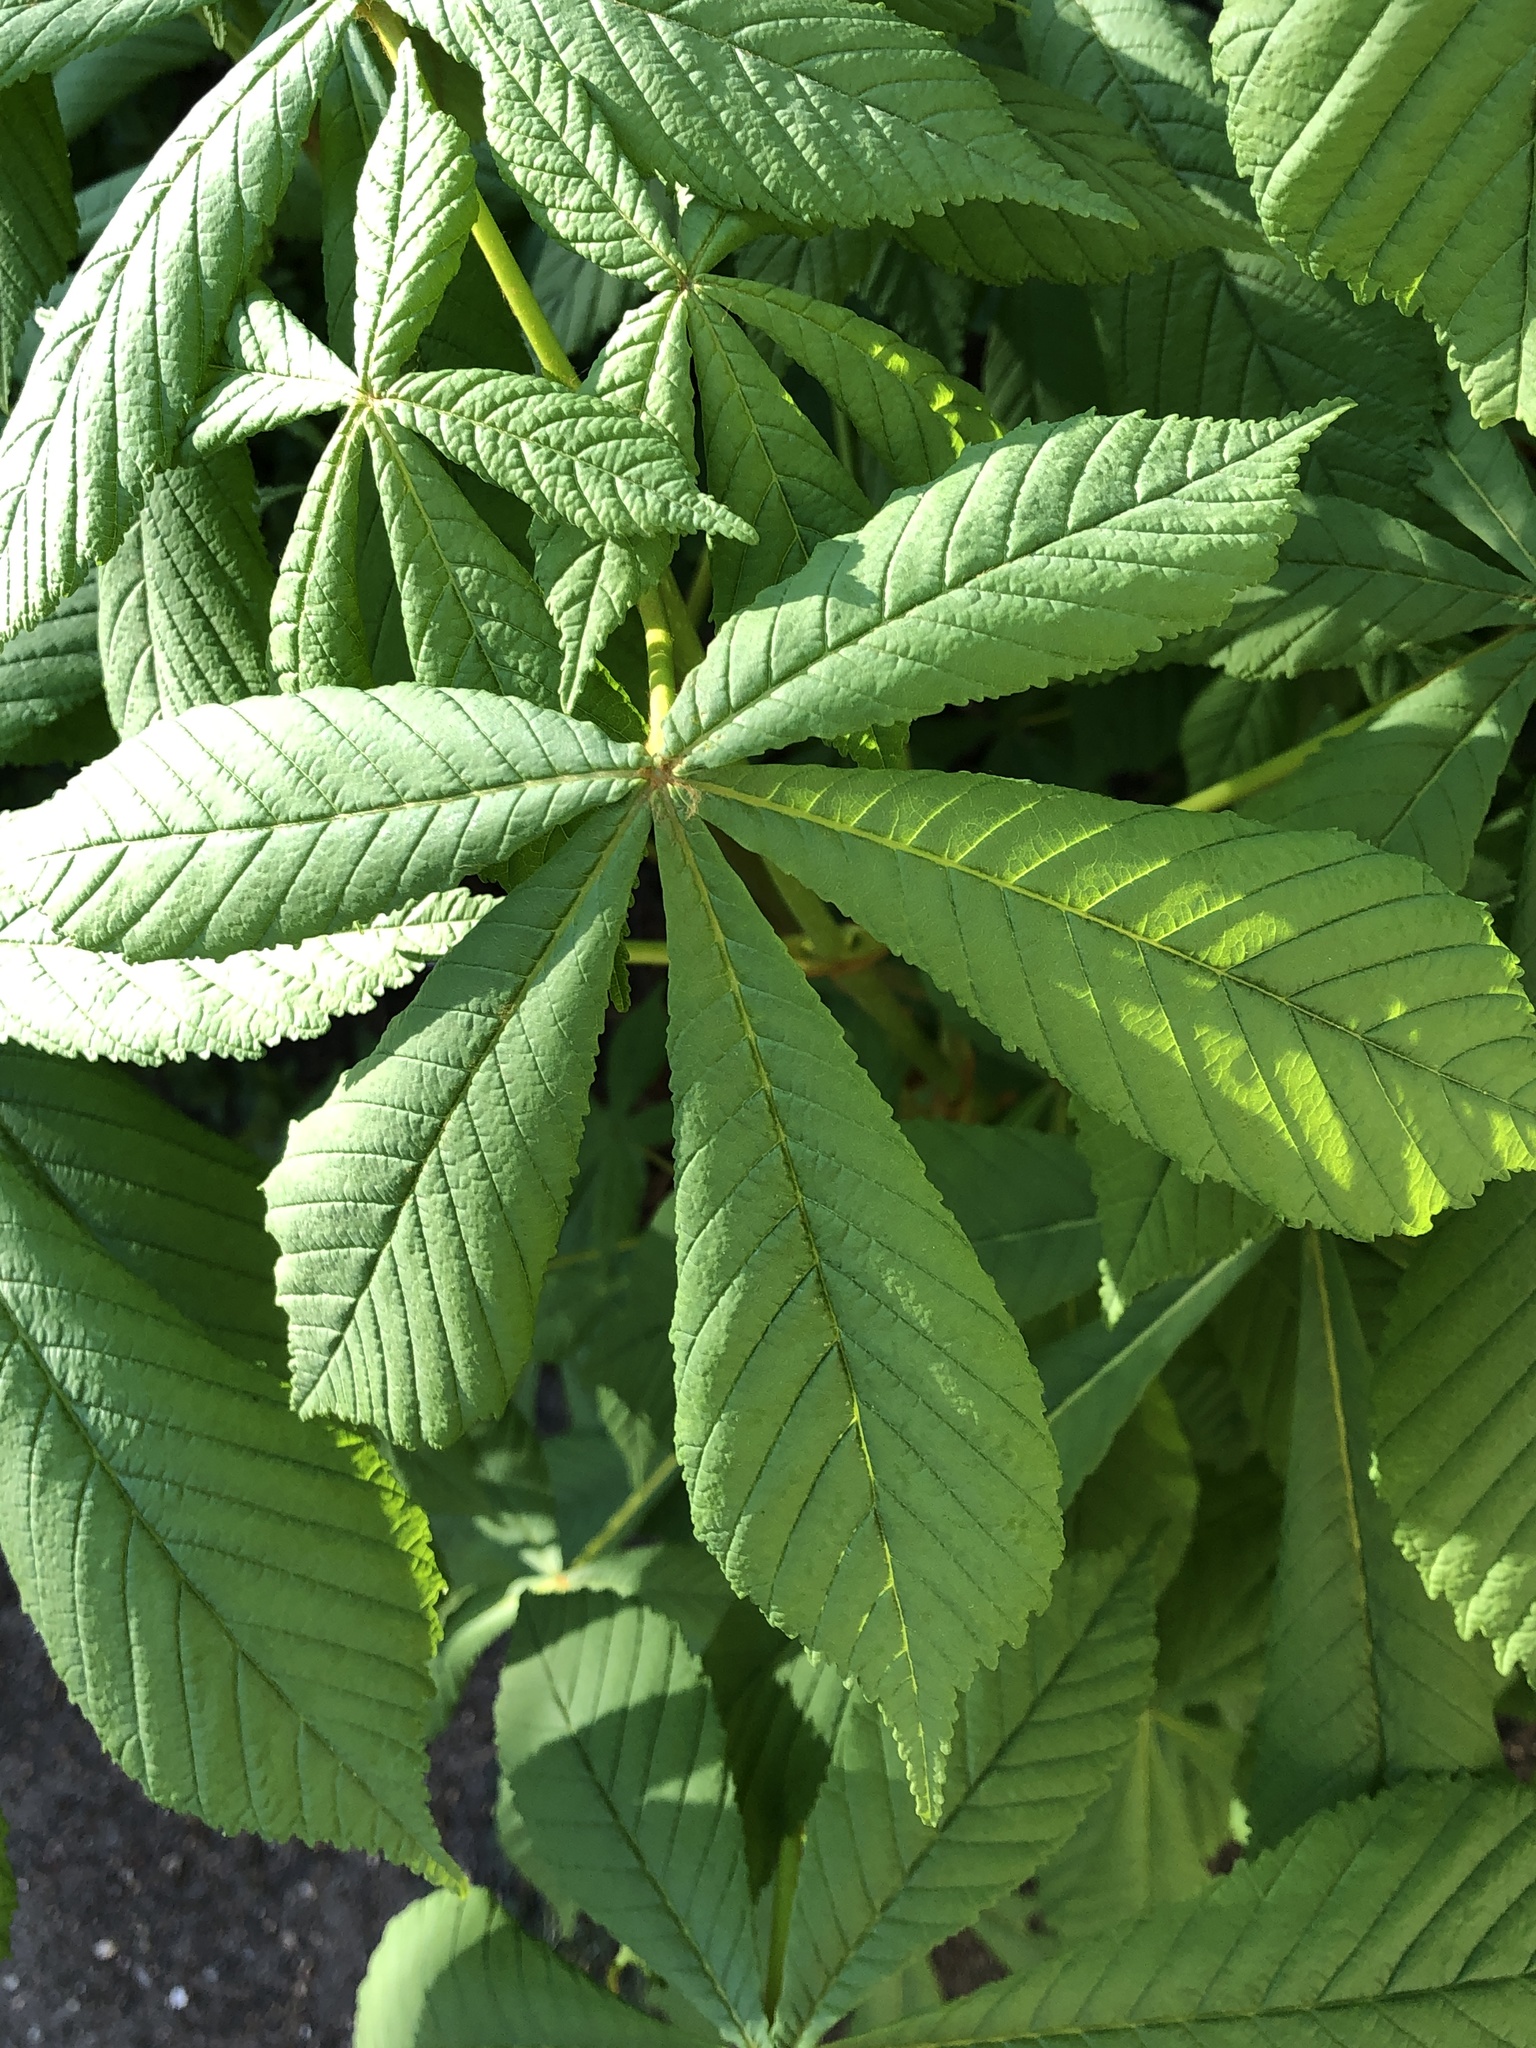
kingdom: Plantae
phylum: Tracheophyta
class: Magnoliopsida
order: Sapindales
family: Sapindaceae
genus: Aesculus
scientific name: Aesculus hippocastanum
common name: Horse-chestnut
